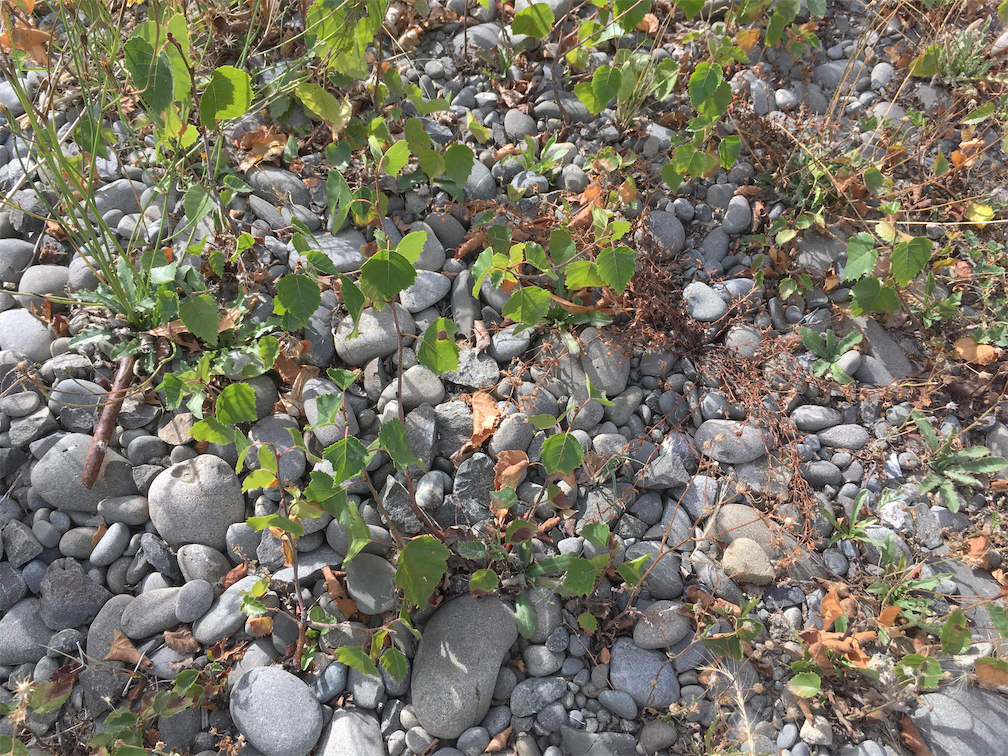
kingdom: Plantae
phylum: Tracheophyta
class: Magnoliopsida
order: Fagales
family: Betulaceae
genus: Betula
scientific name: Betula pendula
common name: Silver birch
